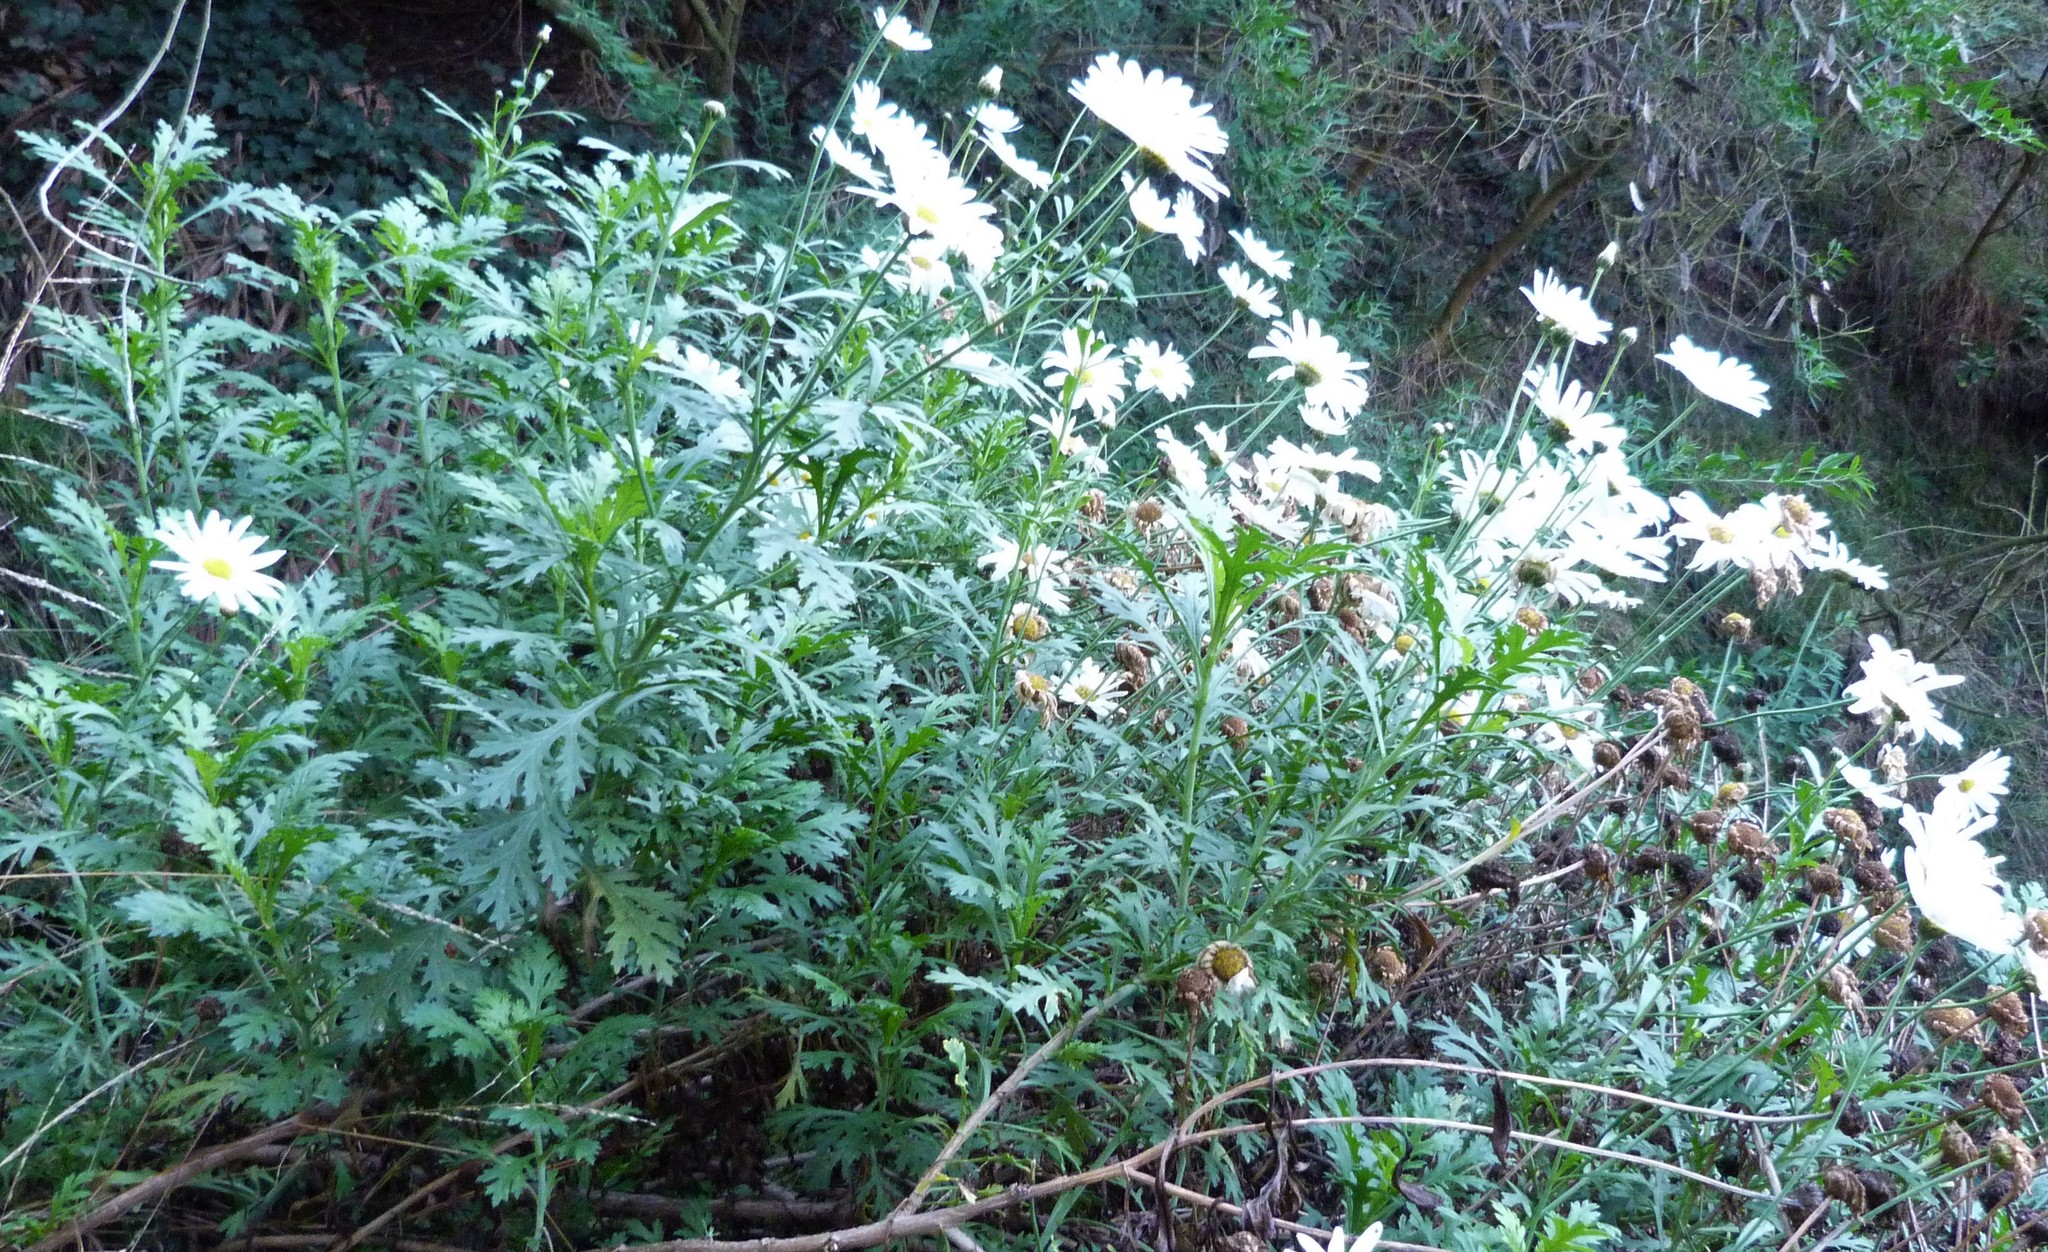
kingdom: Plantae
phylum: Tracheophyta
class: Magnoliopsida
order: Asterales
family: Asteraceae
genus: Argyranthemum
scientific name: Argyranthemum frutescens
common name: Paris daisy
